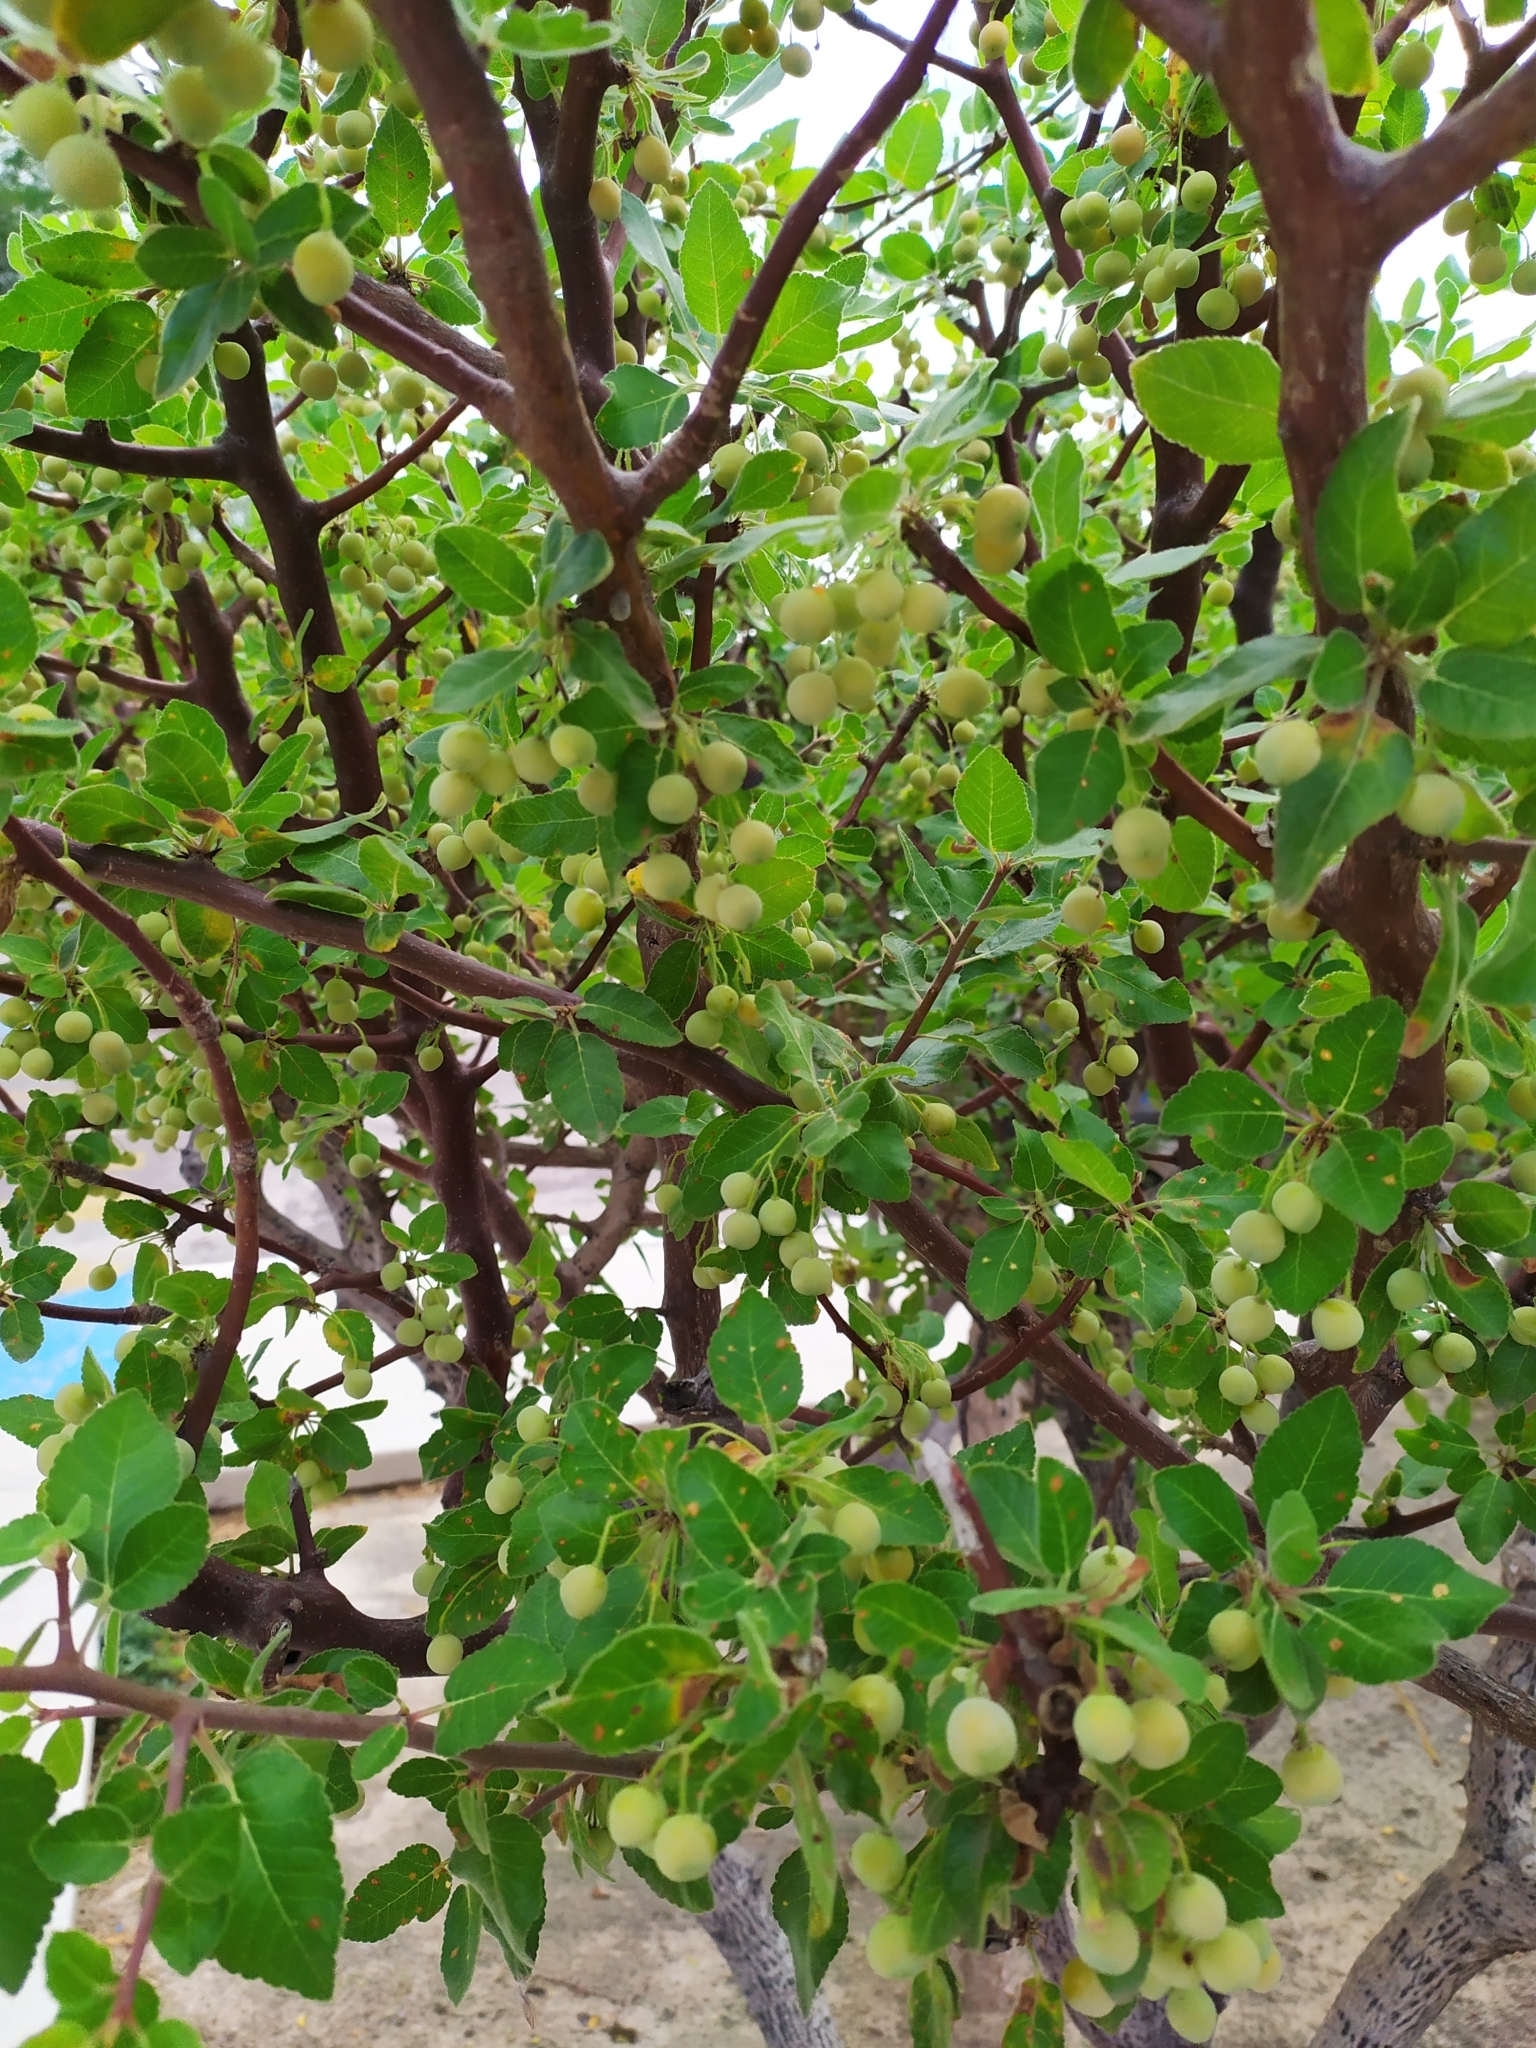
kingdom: Plantae
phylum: Tracheophyta
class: Magnoliopsida
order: Sapindales
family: Burseraceae
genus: Bursera
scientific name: Bursera hindsiana
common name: Red elephant tree
